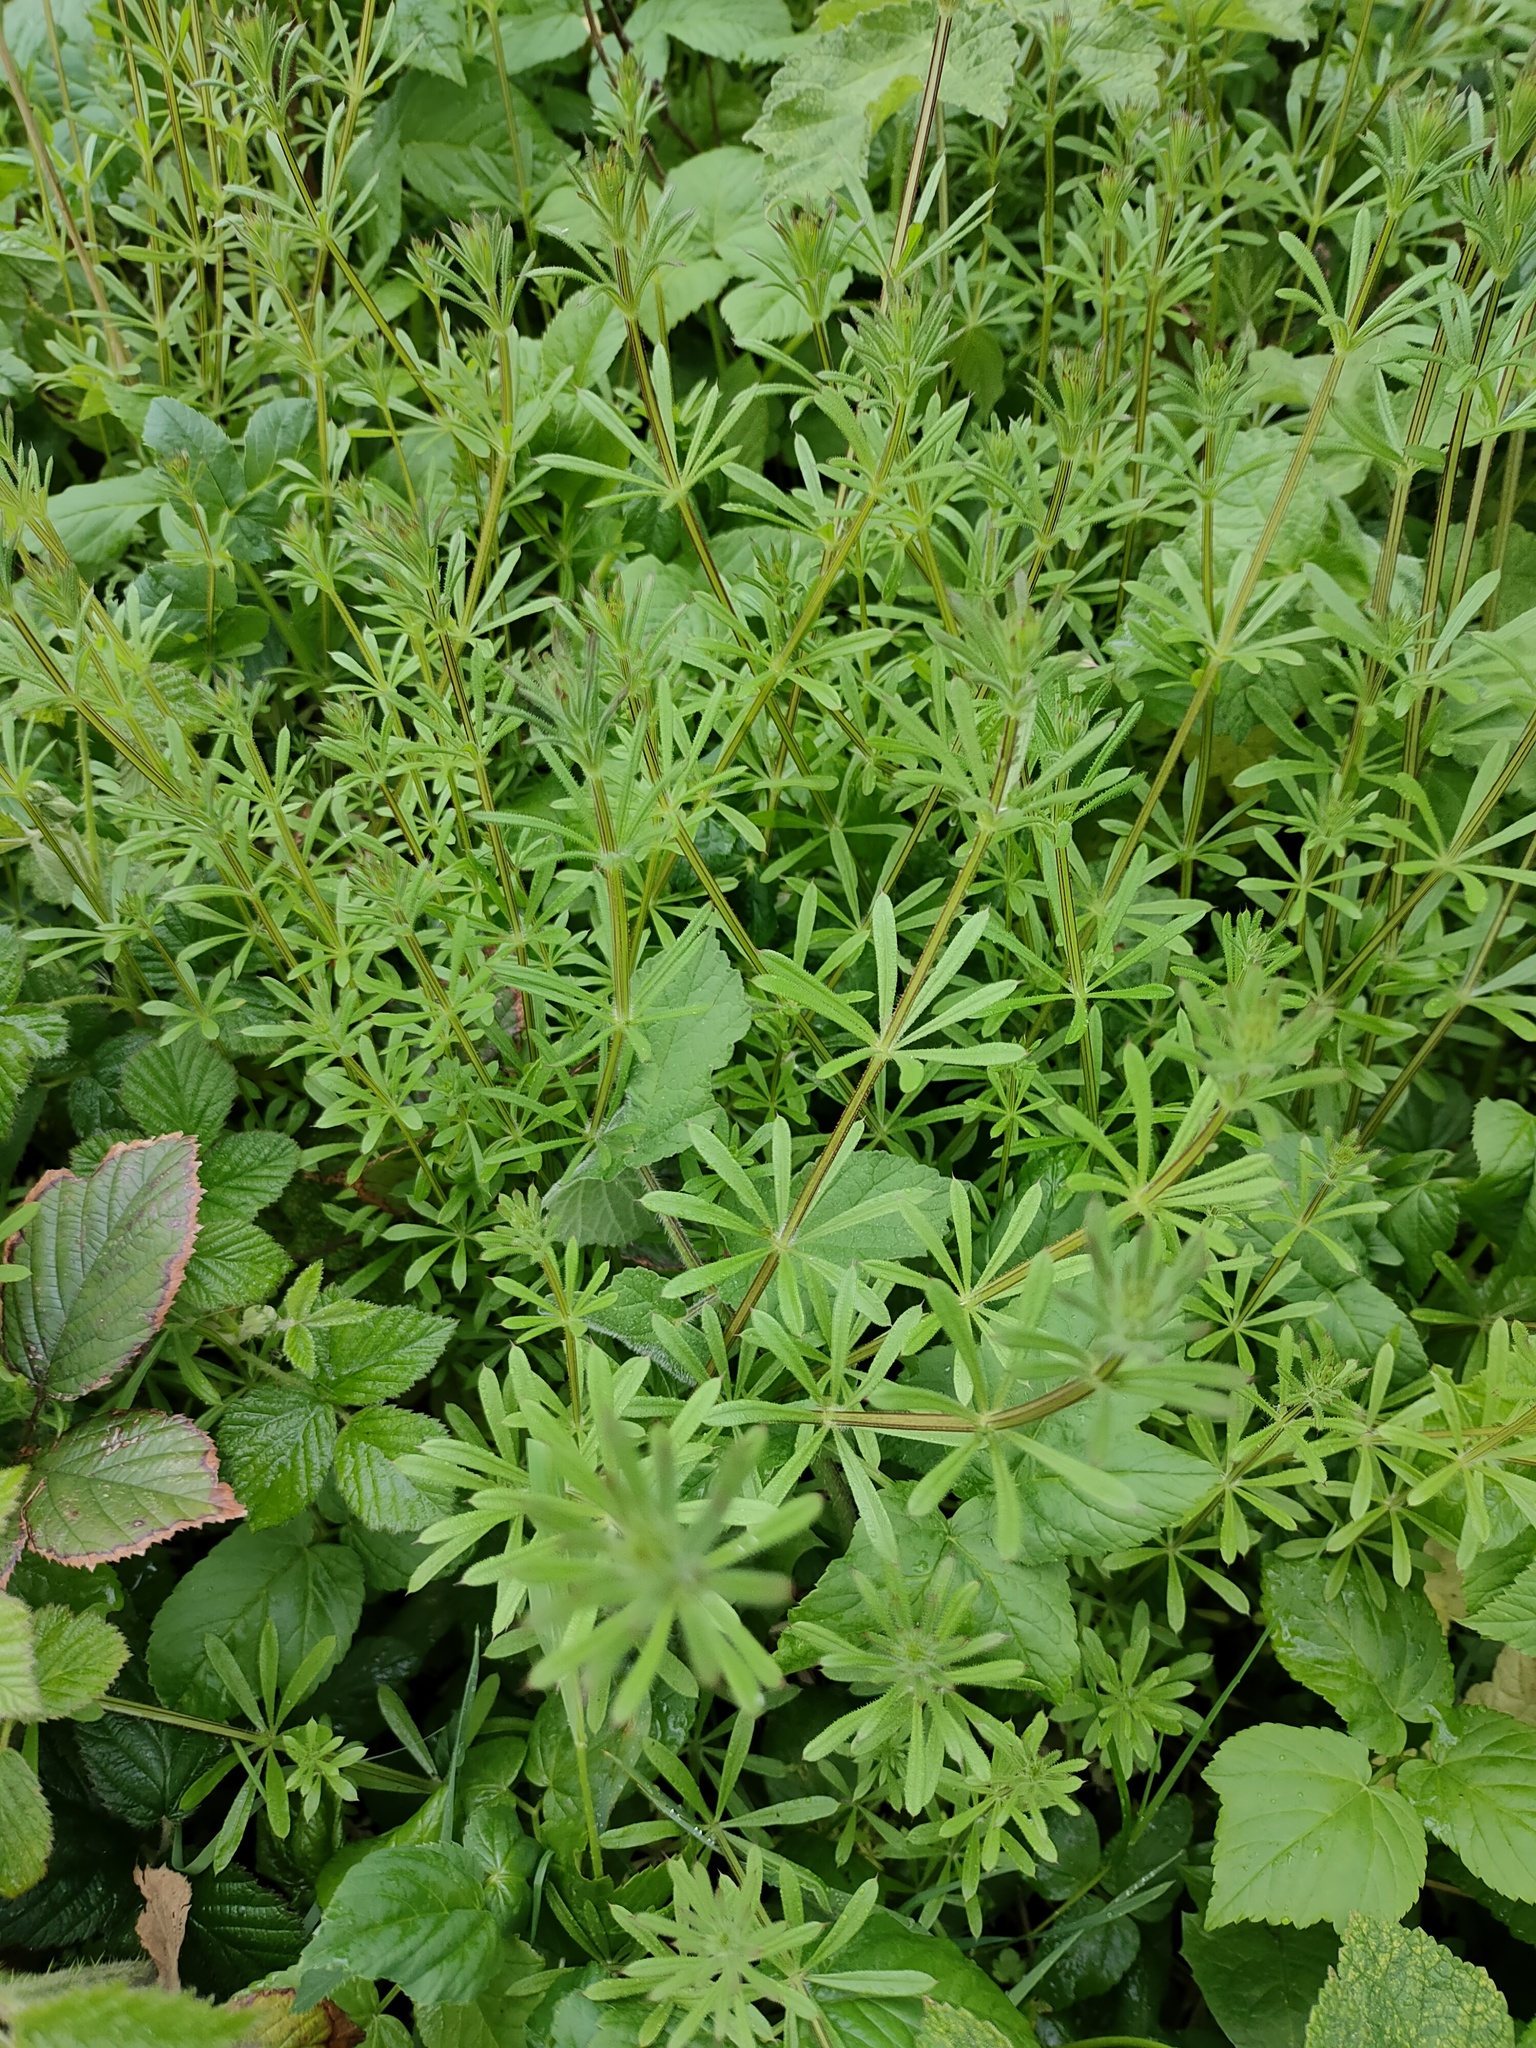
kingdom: Plantae
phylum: Tracheophyta
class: Magnoliopsida
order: Gentianales
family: Rubiaceae
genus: Galium
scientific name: Galium aparine
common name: Cleavers
